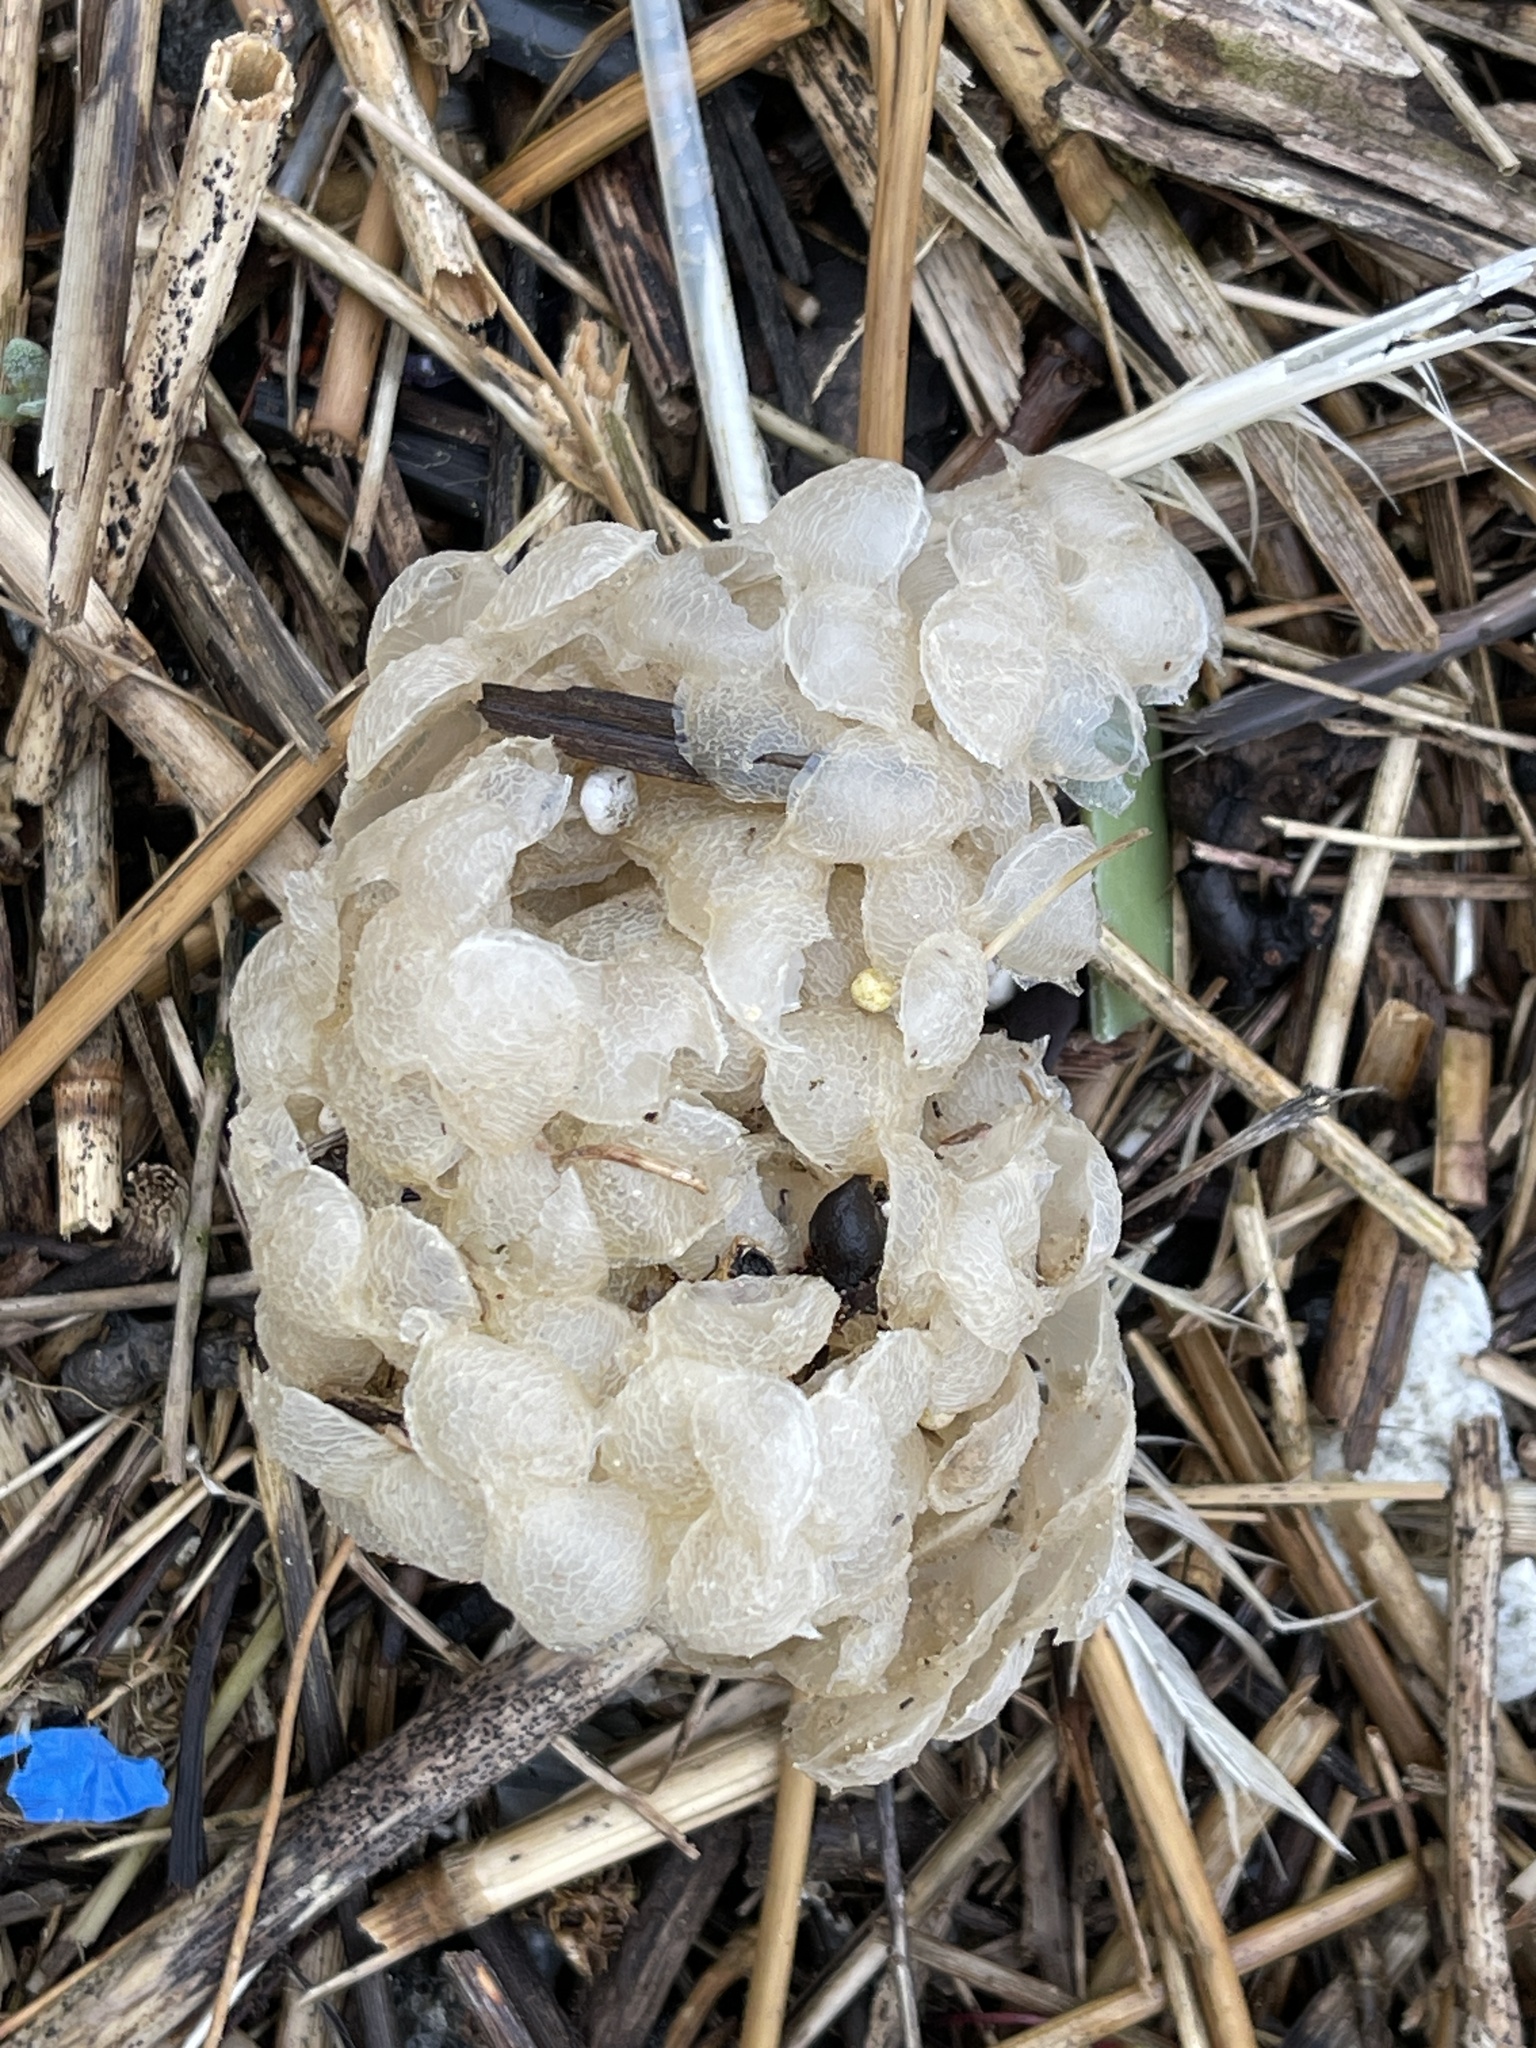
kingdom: Animalia
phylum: Mollusca
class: Gastropoda
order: Neogastropoda
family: Buccinidae
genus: Buccinum
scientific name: Buccinum undatum
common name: Common whelk
